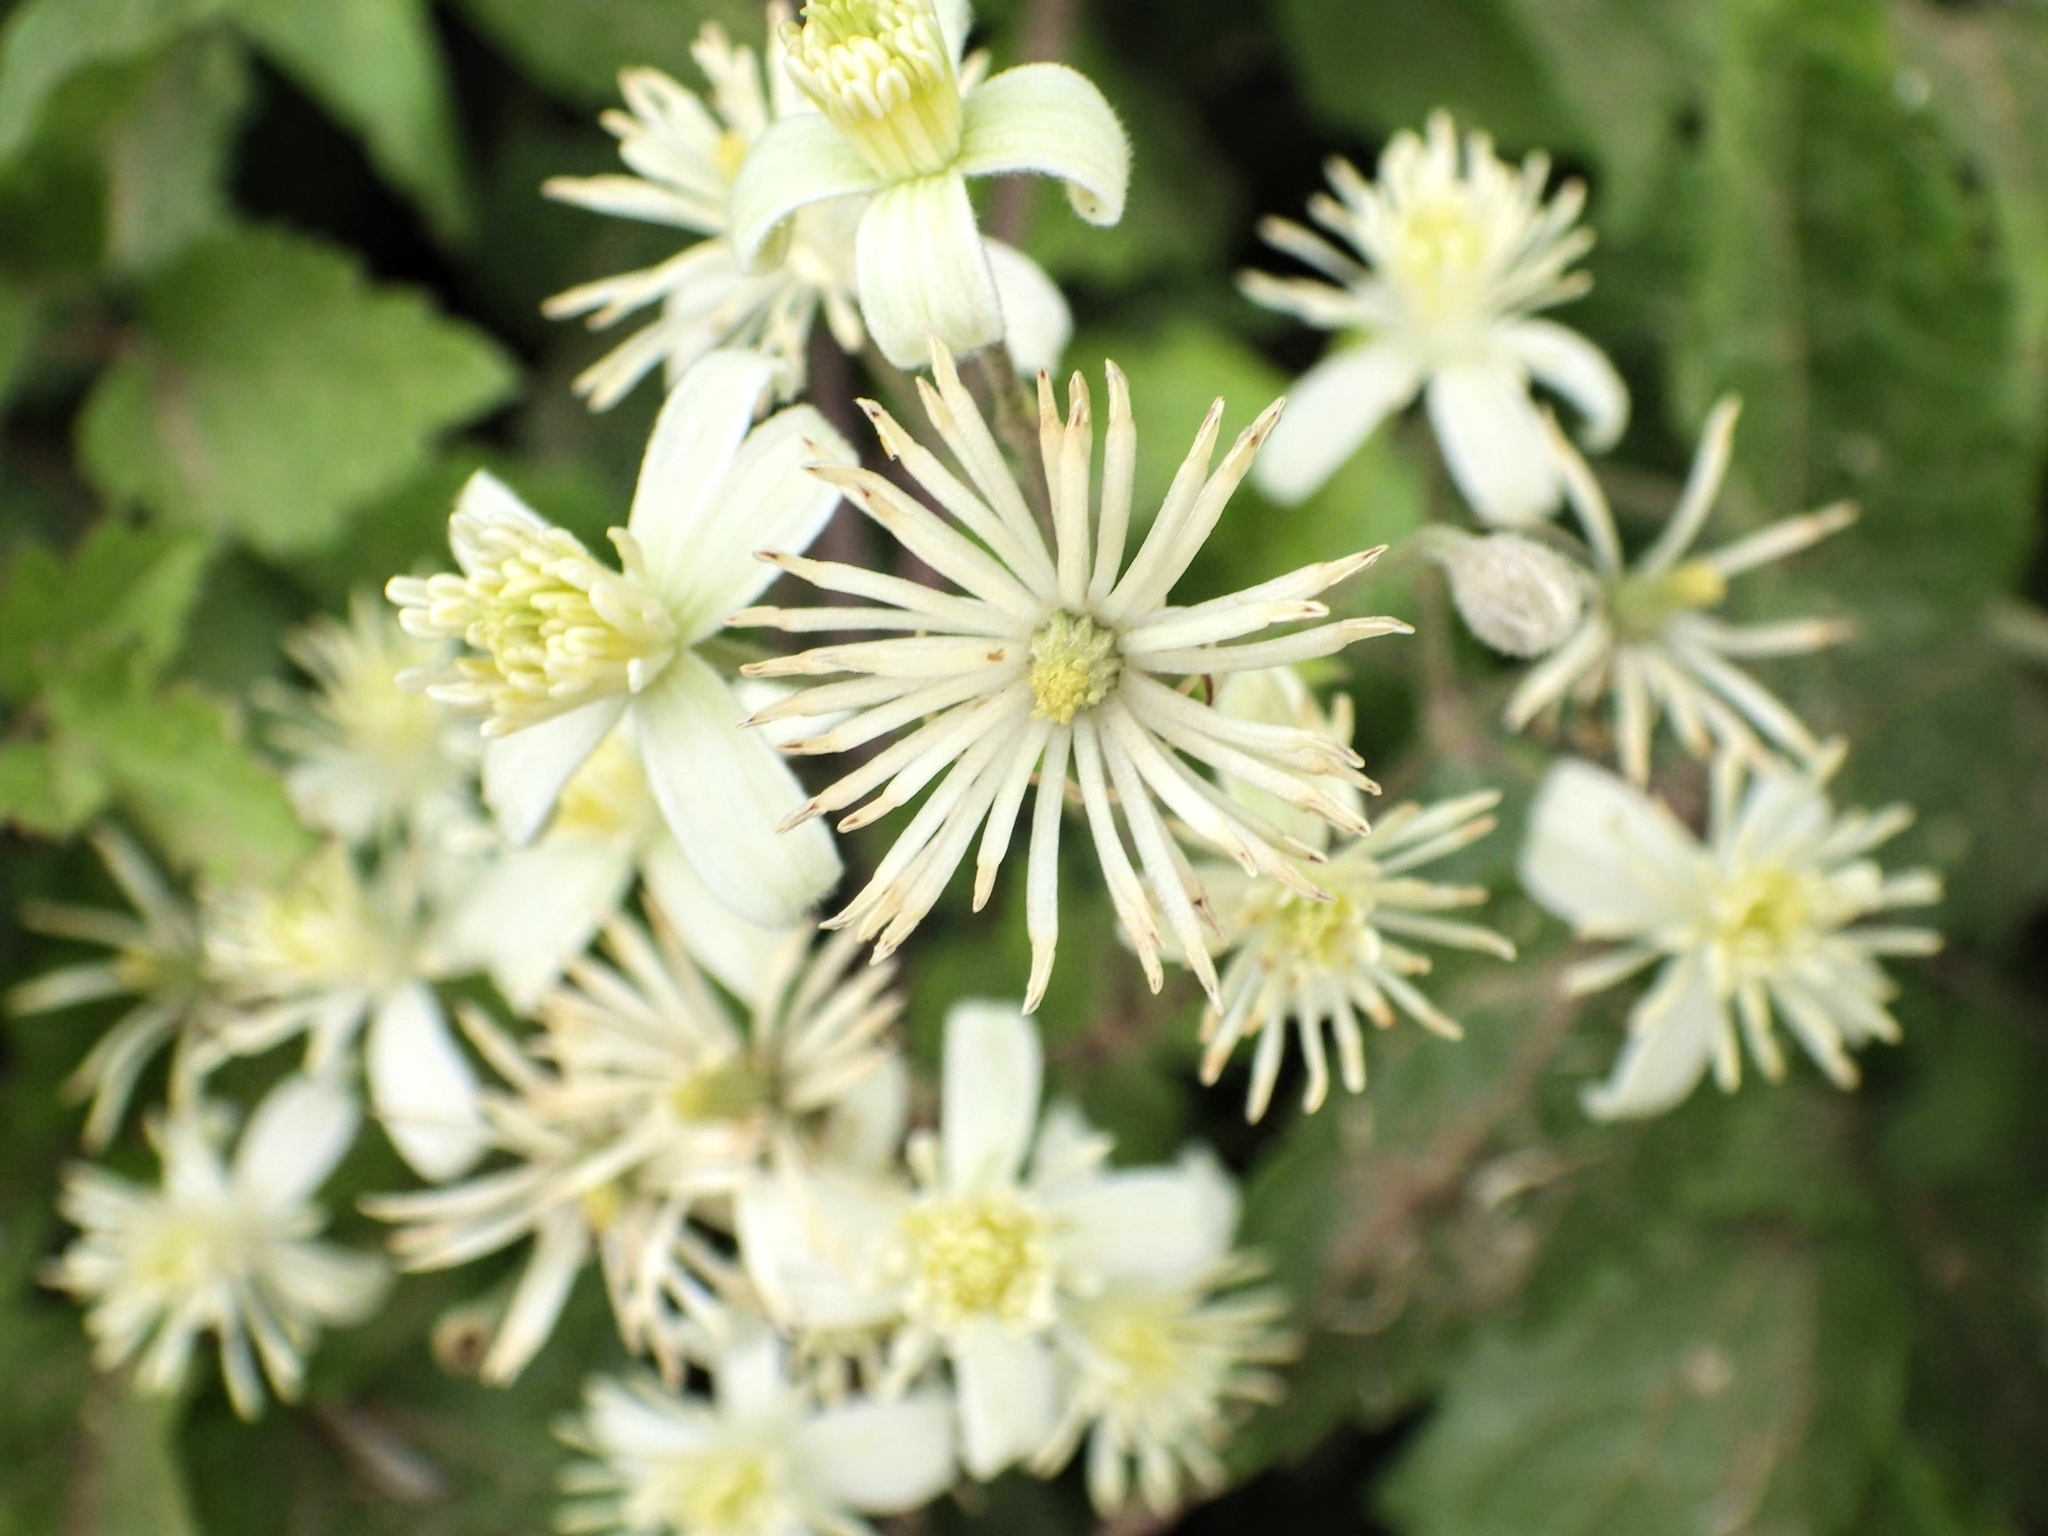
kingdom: Plantae
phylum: Tracheophyta
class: Magnoliopsida
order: Ranunculales
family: Ranunculaceae
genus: Clematis
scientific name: Clematis vitalba
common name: Evergreen clematis
